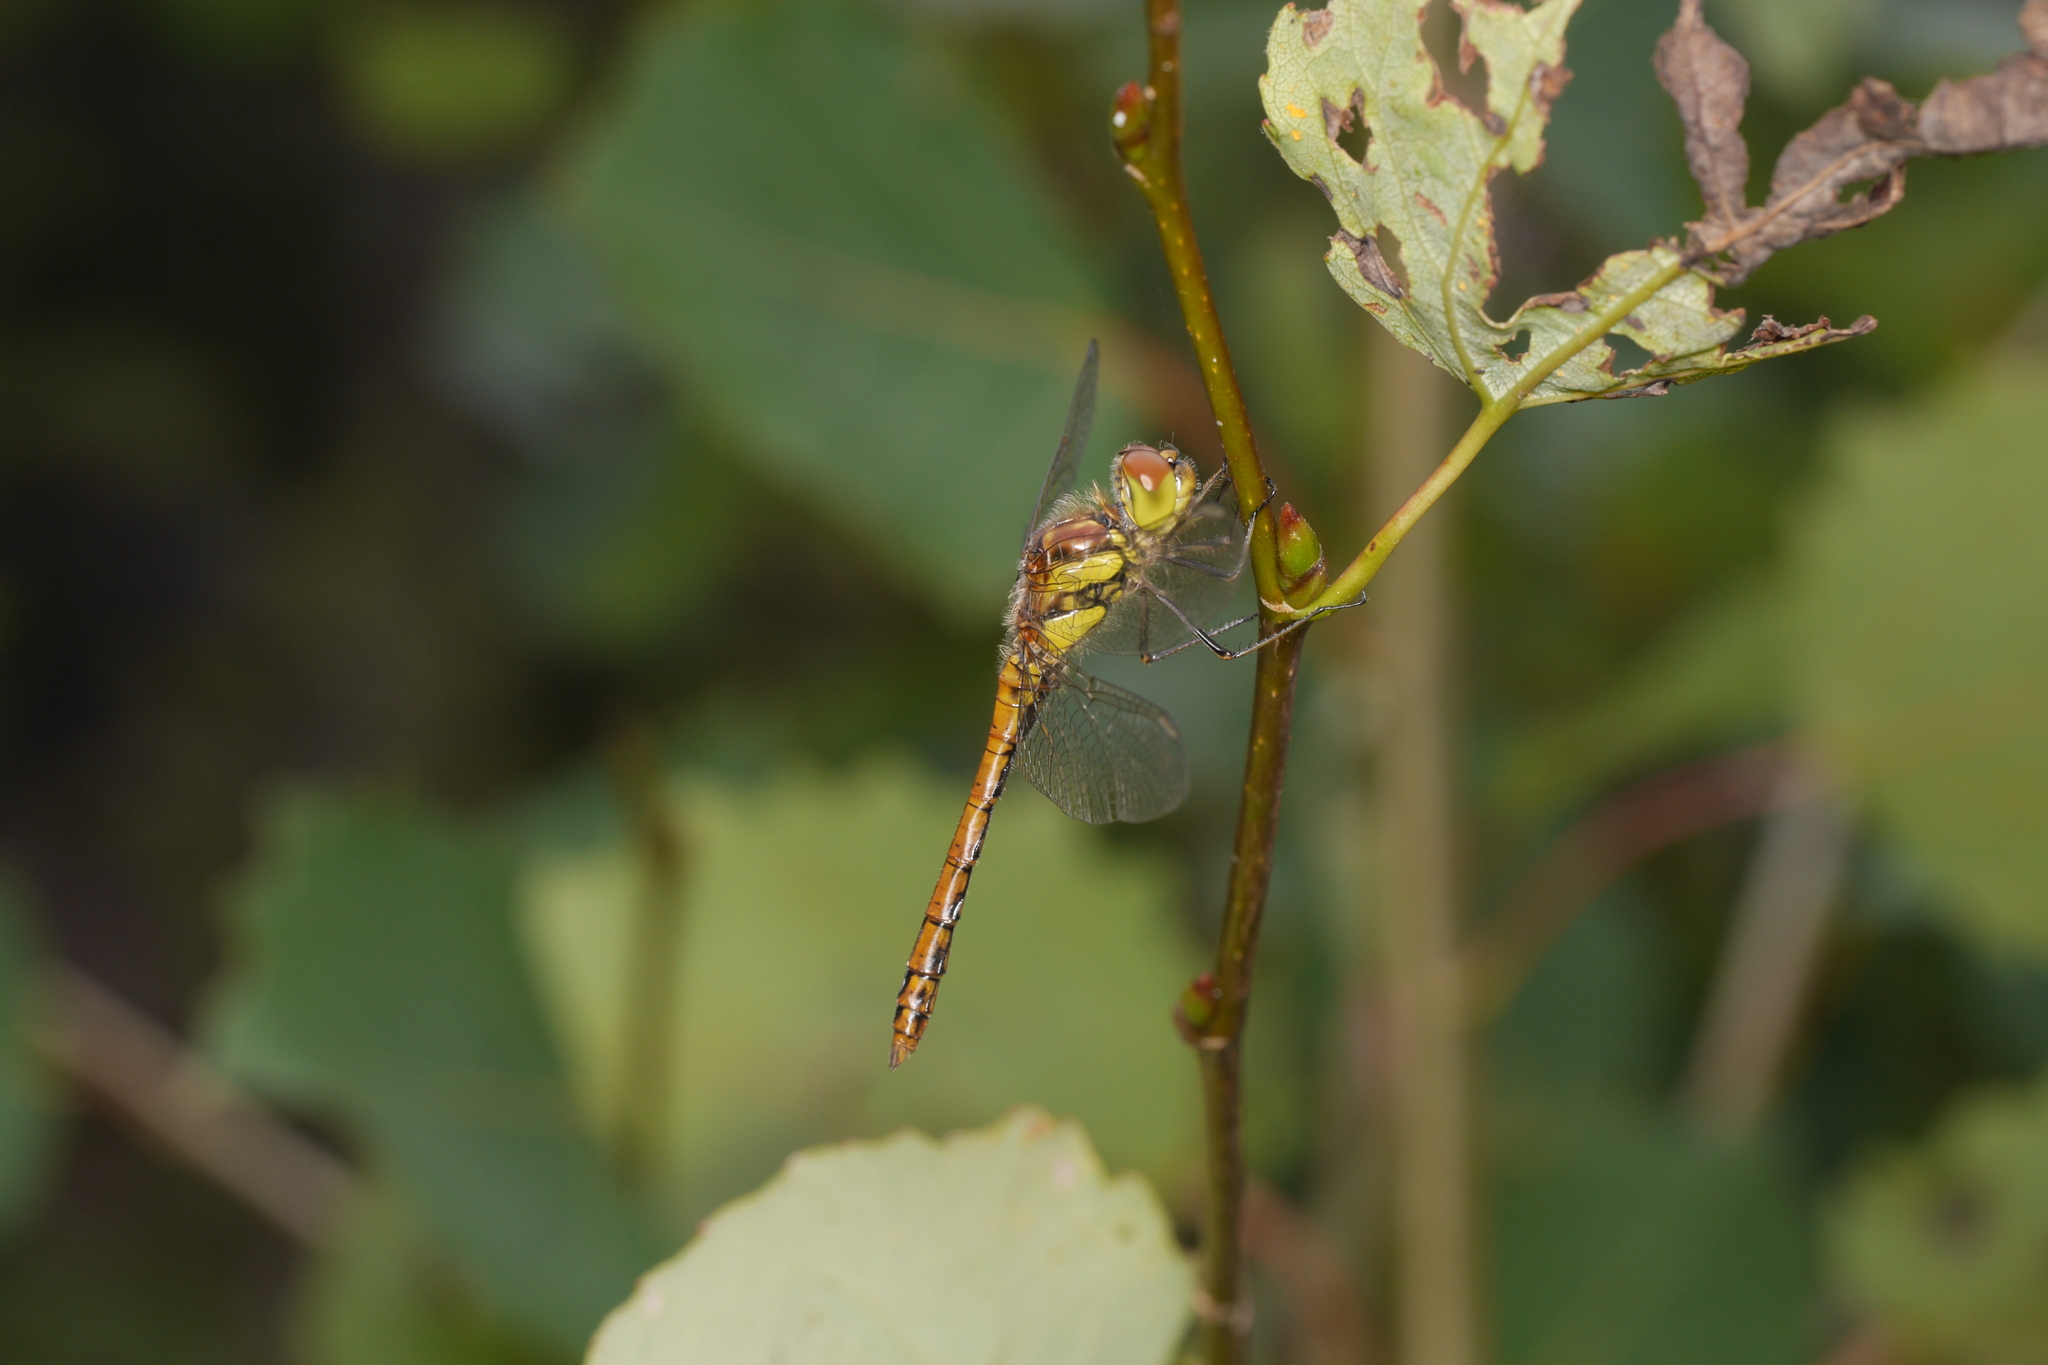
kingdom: Animalia
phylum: Arthropoda
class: Insecta
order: Odonata
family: Libellulidae
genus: Sympetrum
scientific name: Sympetrum striolatum
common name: Common darter
